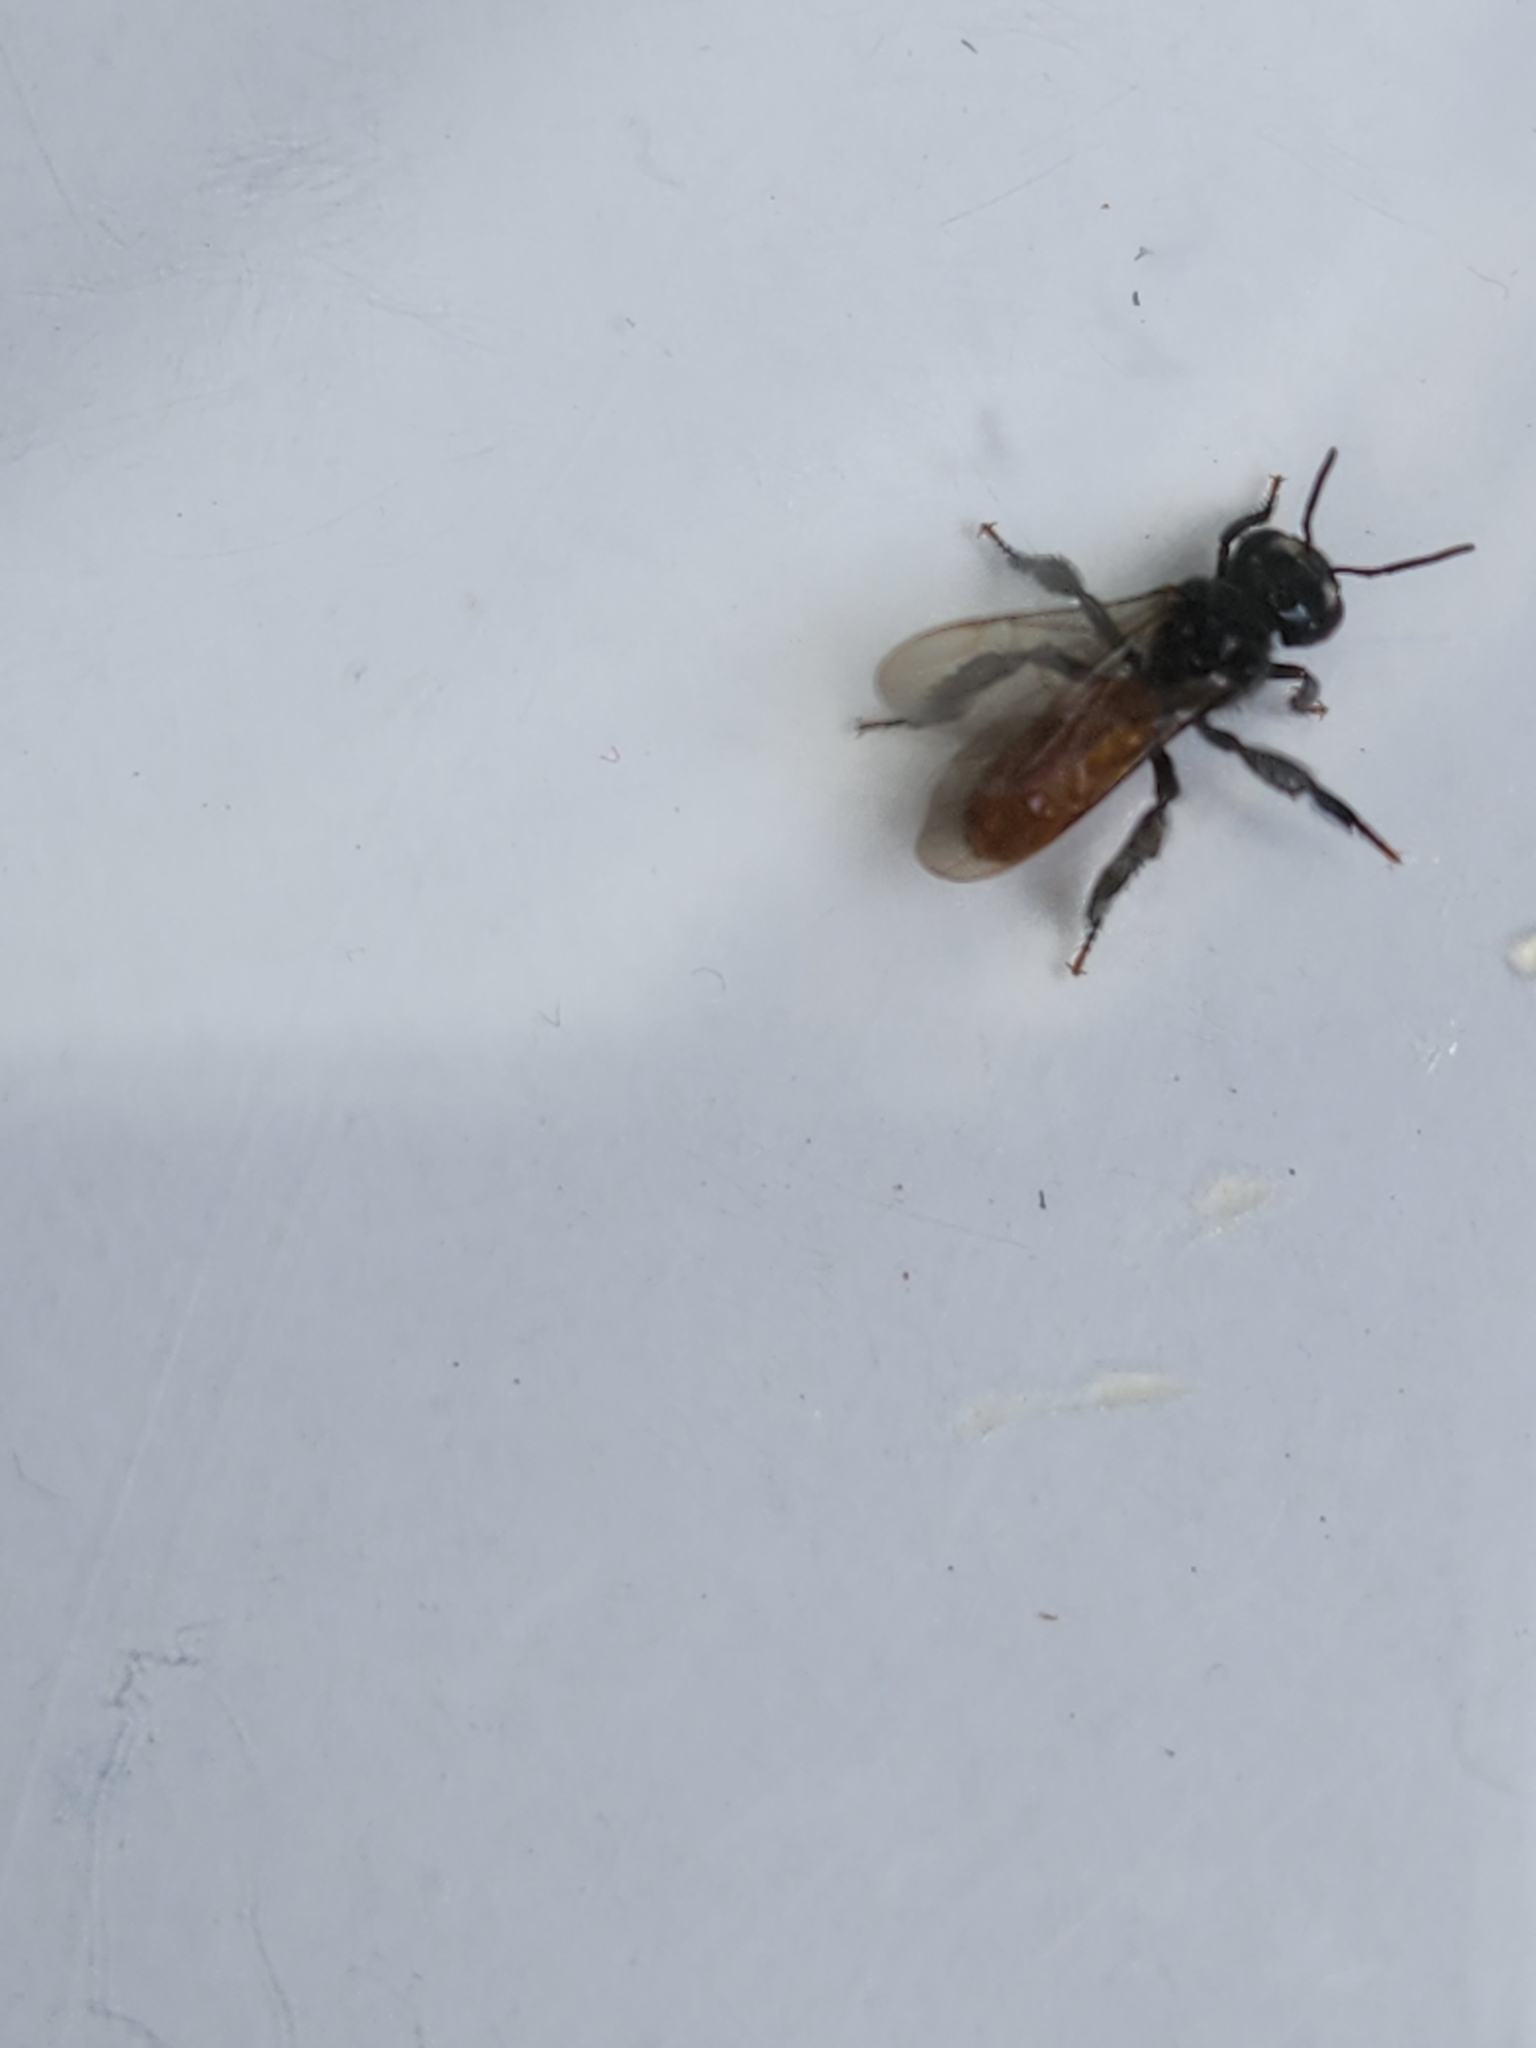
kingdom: Animalia
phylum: Arthropoda
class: Insecta
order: Hymenoptera
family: Apidae
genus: Trigona
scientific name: Trigona fulviventris
